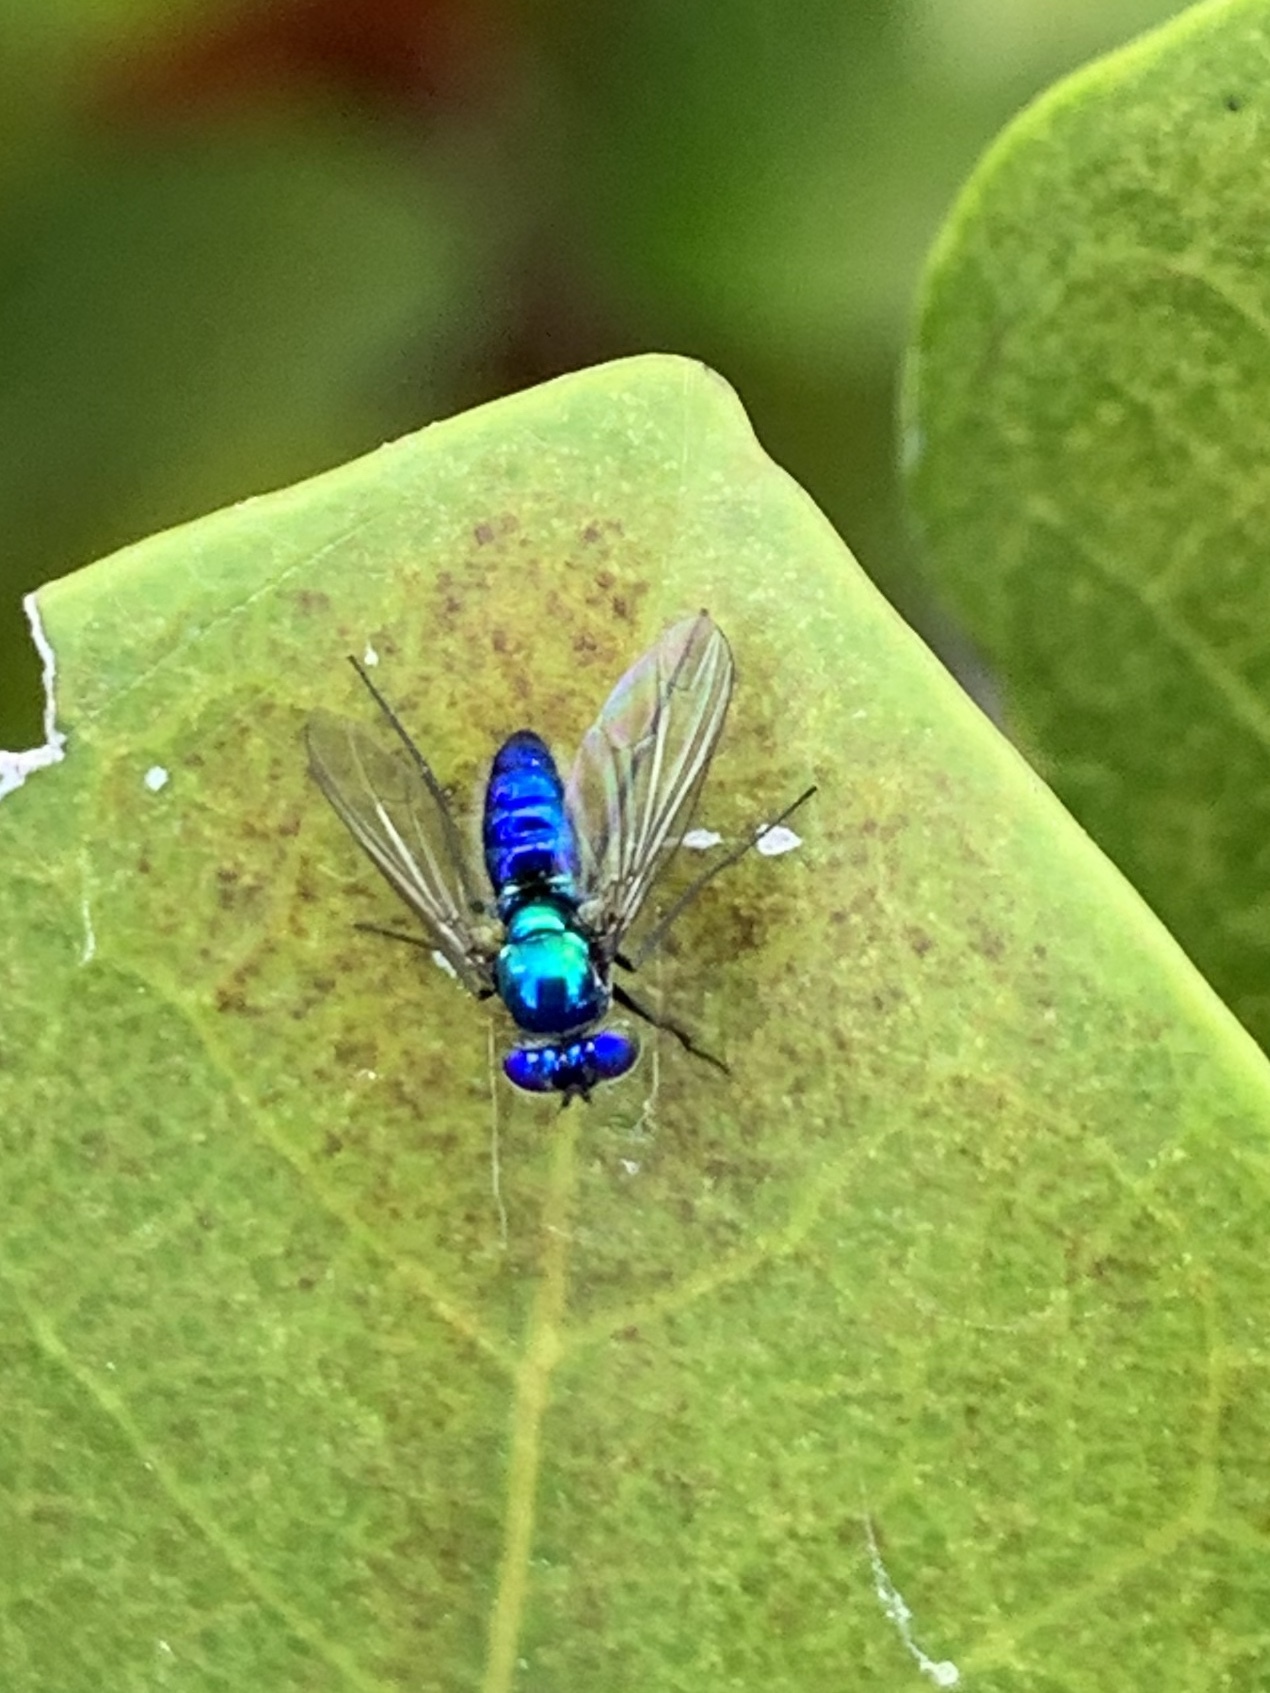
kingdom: Animalia
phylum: Arthropoda
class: Insecta
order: Diptera
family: Dolichopodidae
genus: Condylostylus
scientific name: Condylostylus mundus
